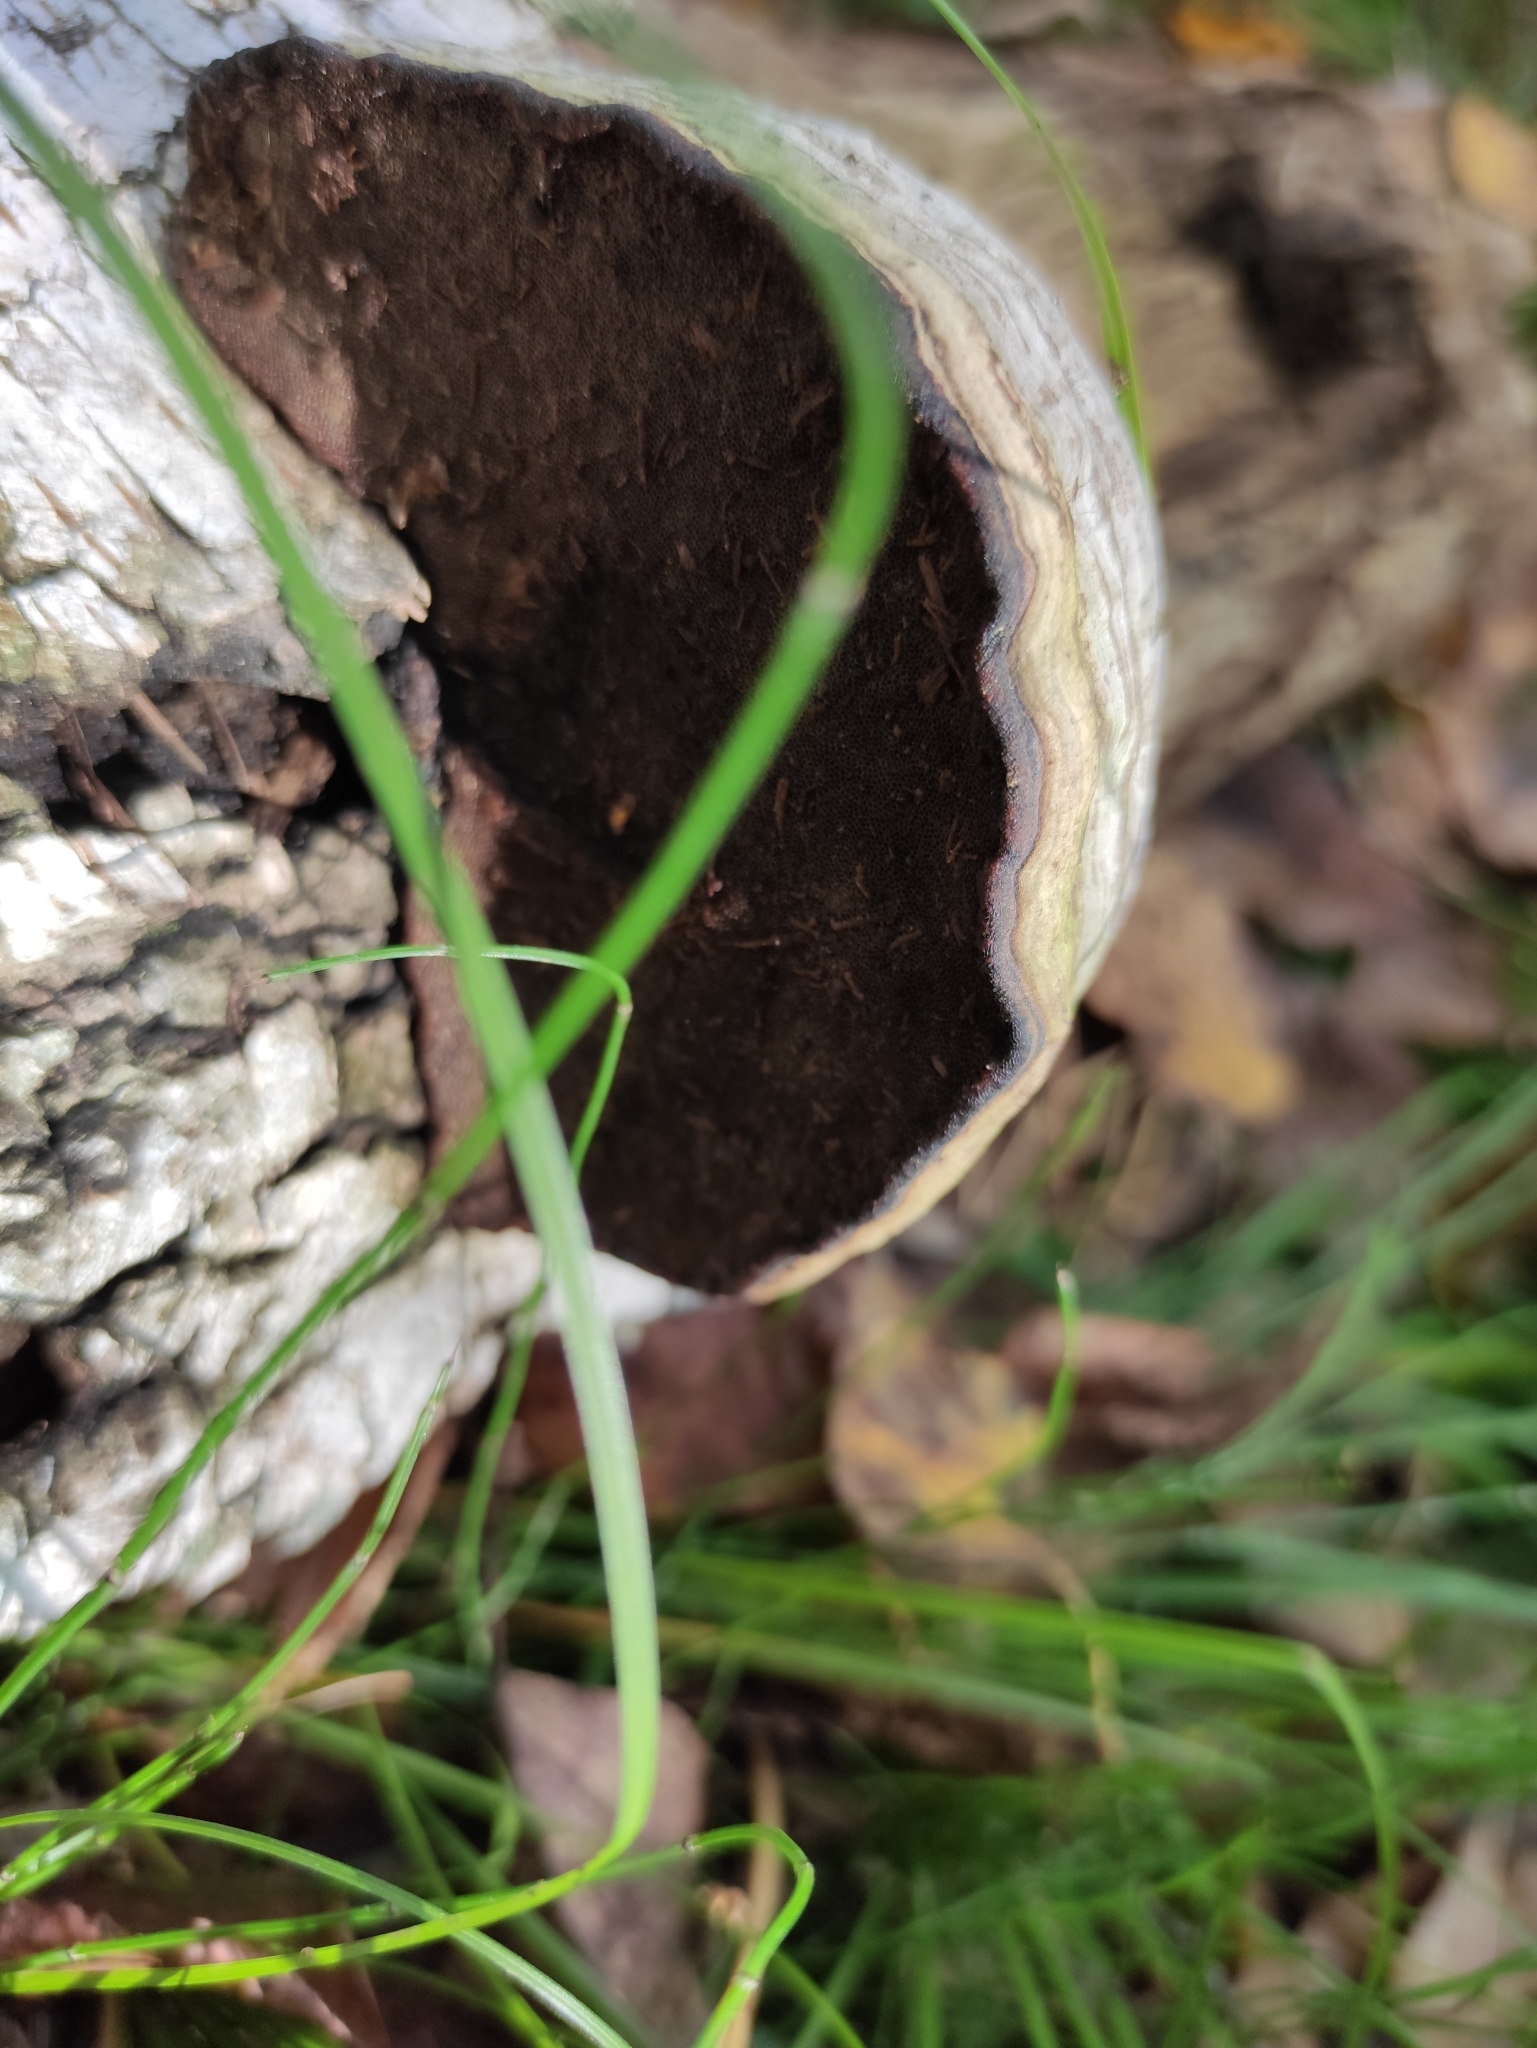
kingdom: Fungi
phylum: Basidiomycota
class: Agaricomycetes
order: Polyporales
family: Polyporaceae
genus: Fomes
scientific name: Fomes fomentarius
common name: Hoof fungus
